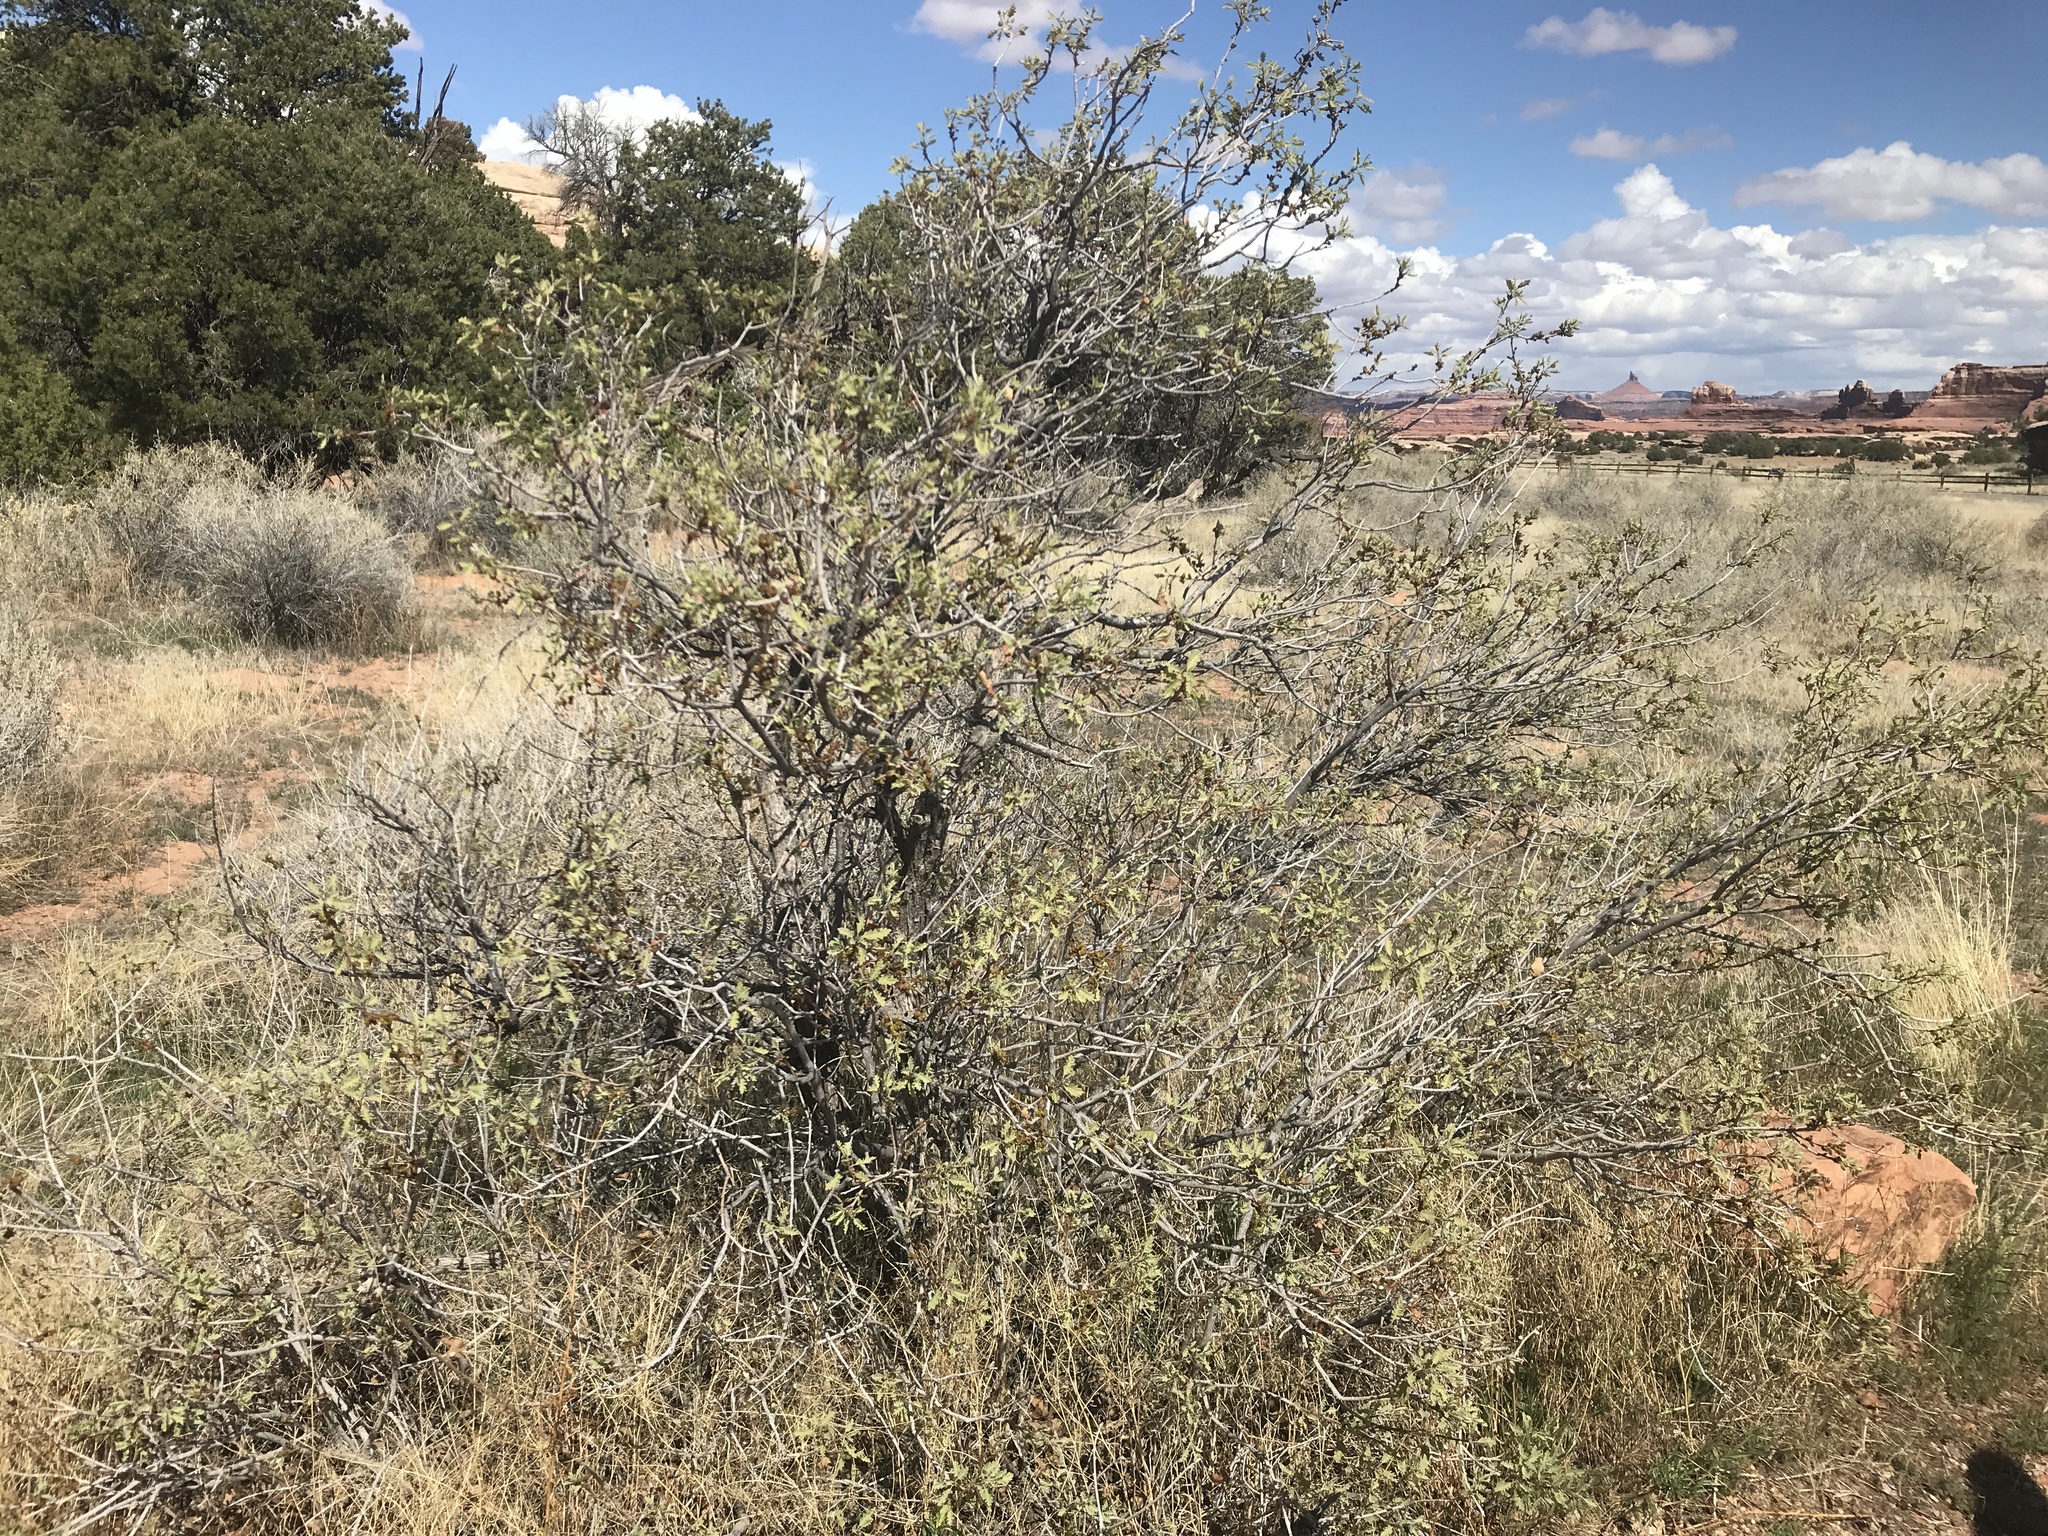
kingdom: Plantae
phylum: Tracheophyta
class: Magnoliopsida
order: Fagales
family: Fagaceae
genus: Quercus
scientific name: Quercus welshii
